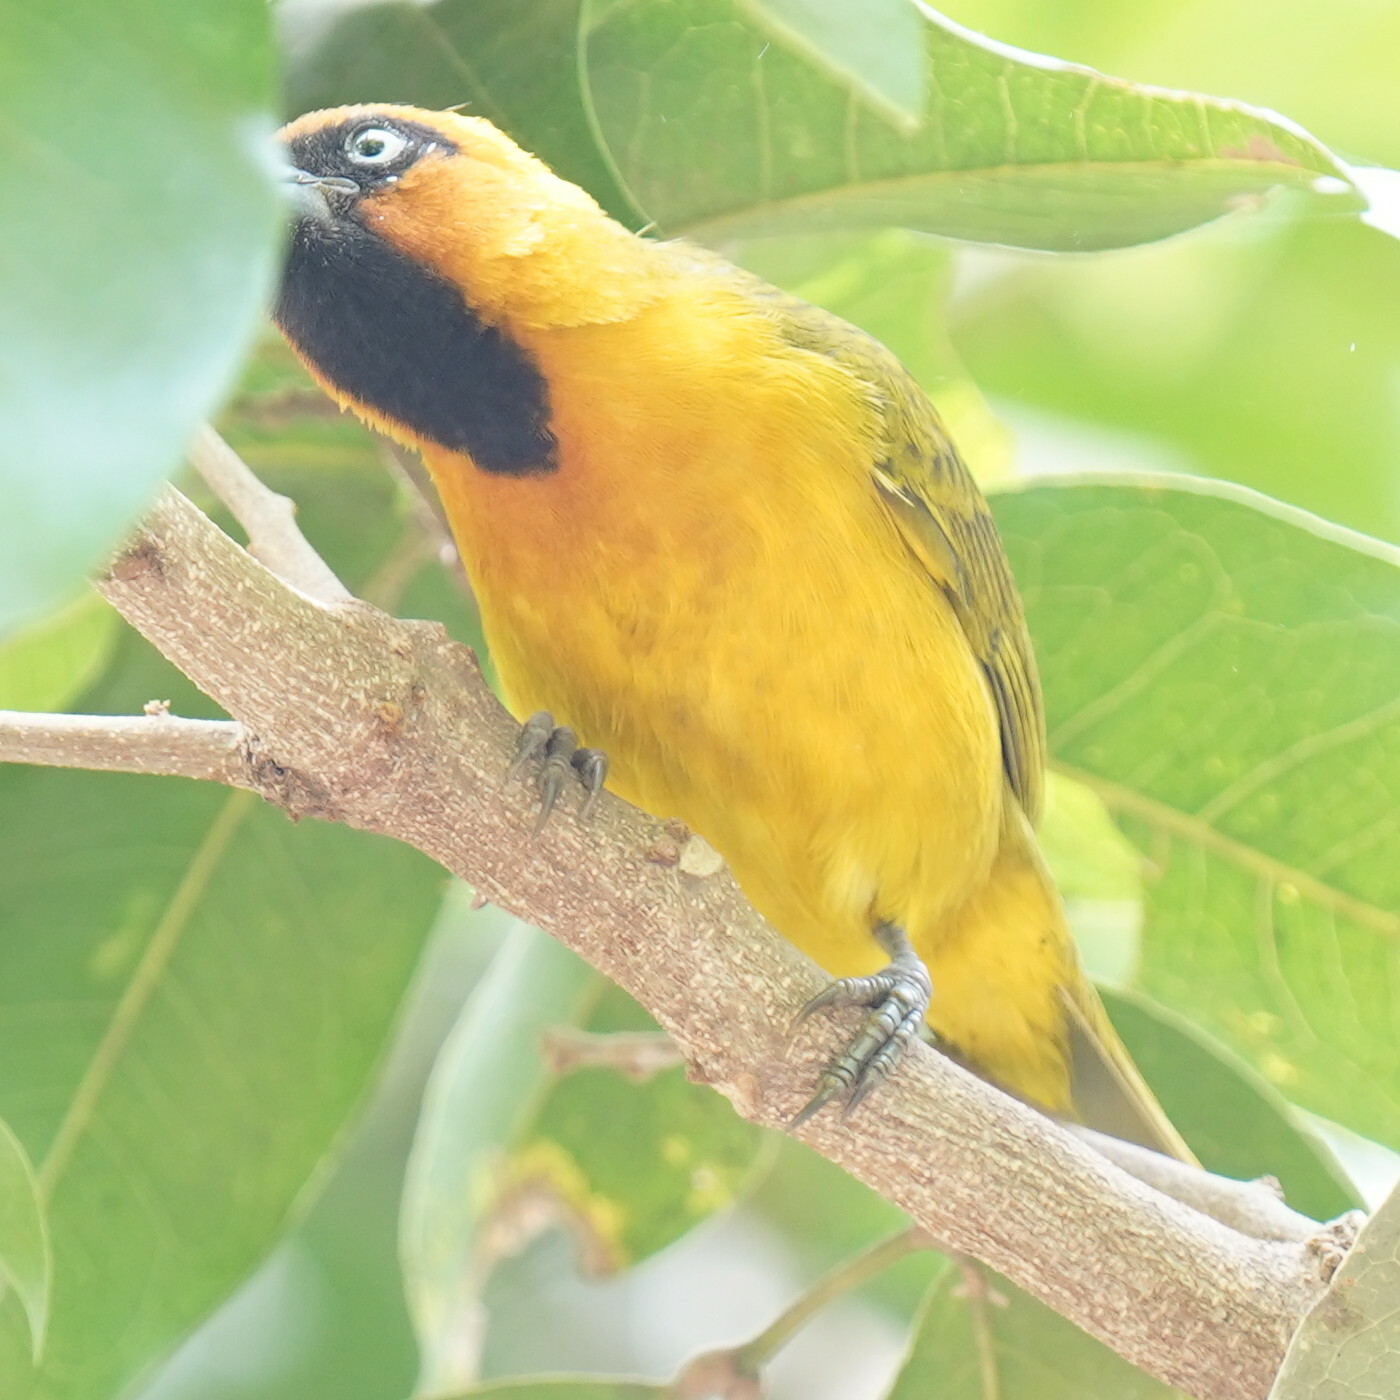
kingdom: Animalia
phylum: Chordata
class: Aves
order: Passeriformes
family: Ploceidae
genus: Ploceus
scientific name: Ploceus brachypterus
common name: Olive-naped weaver
